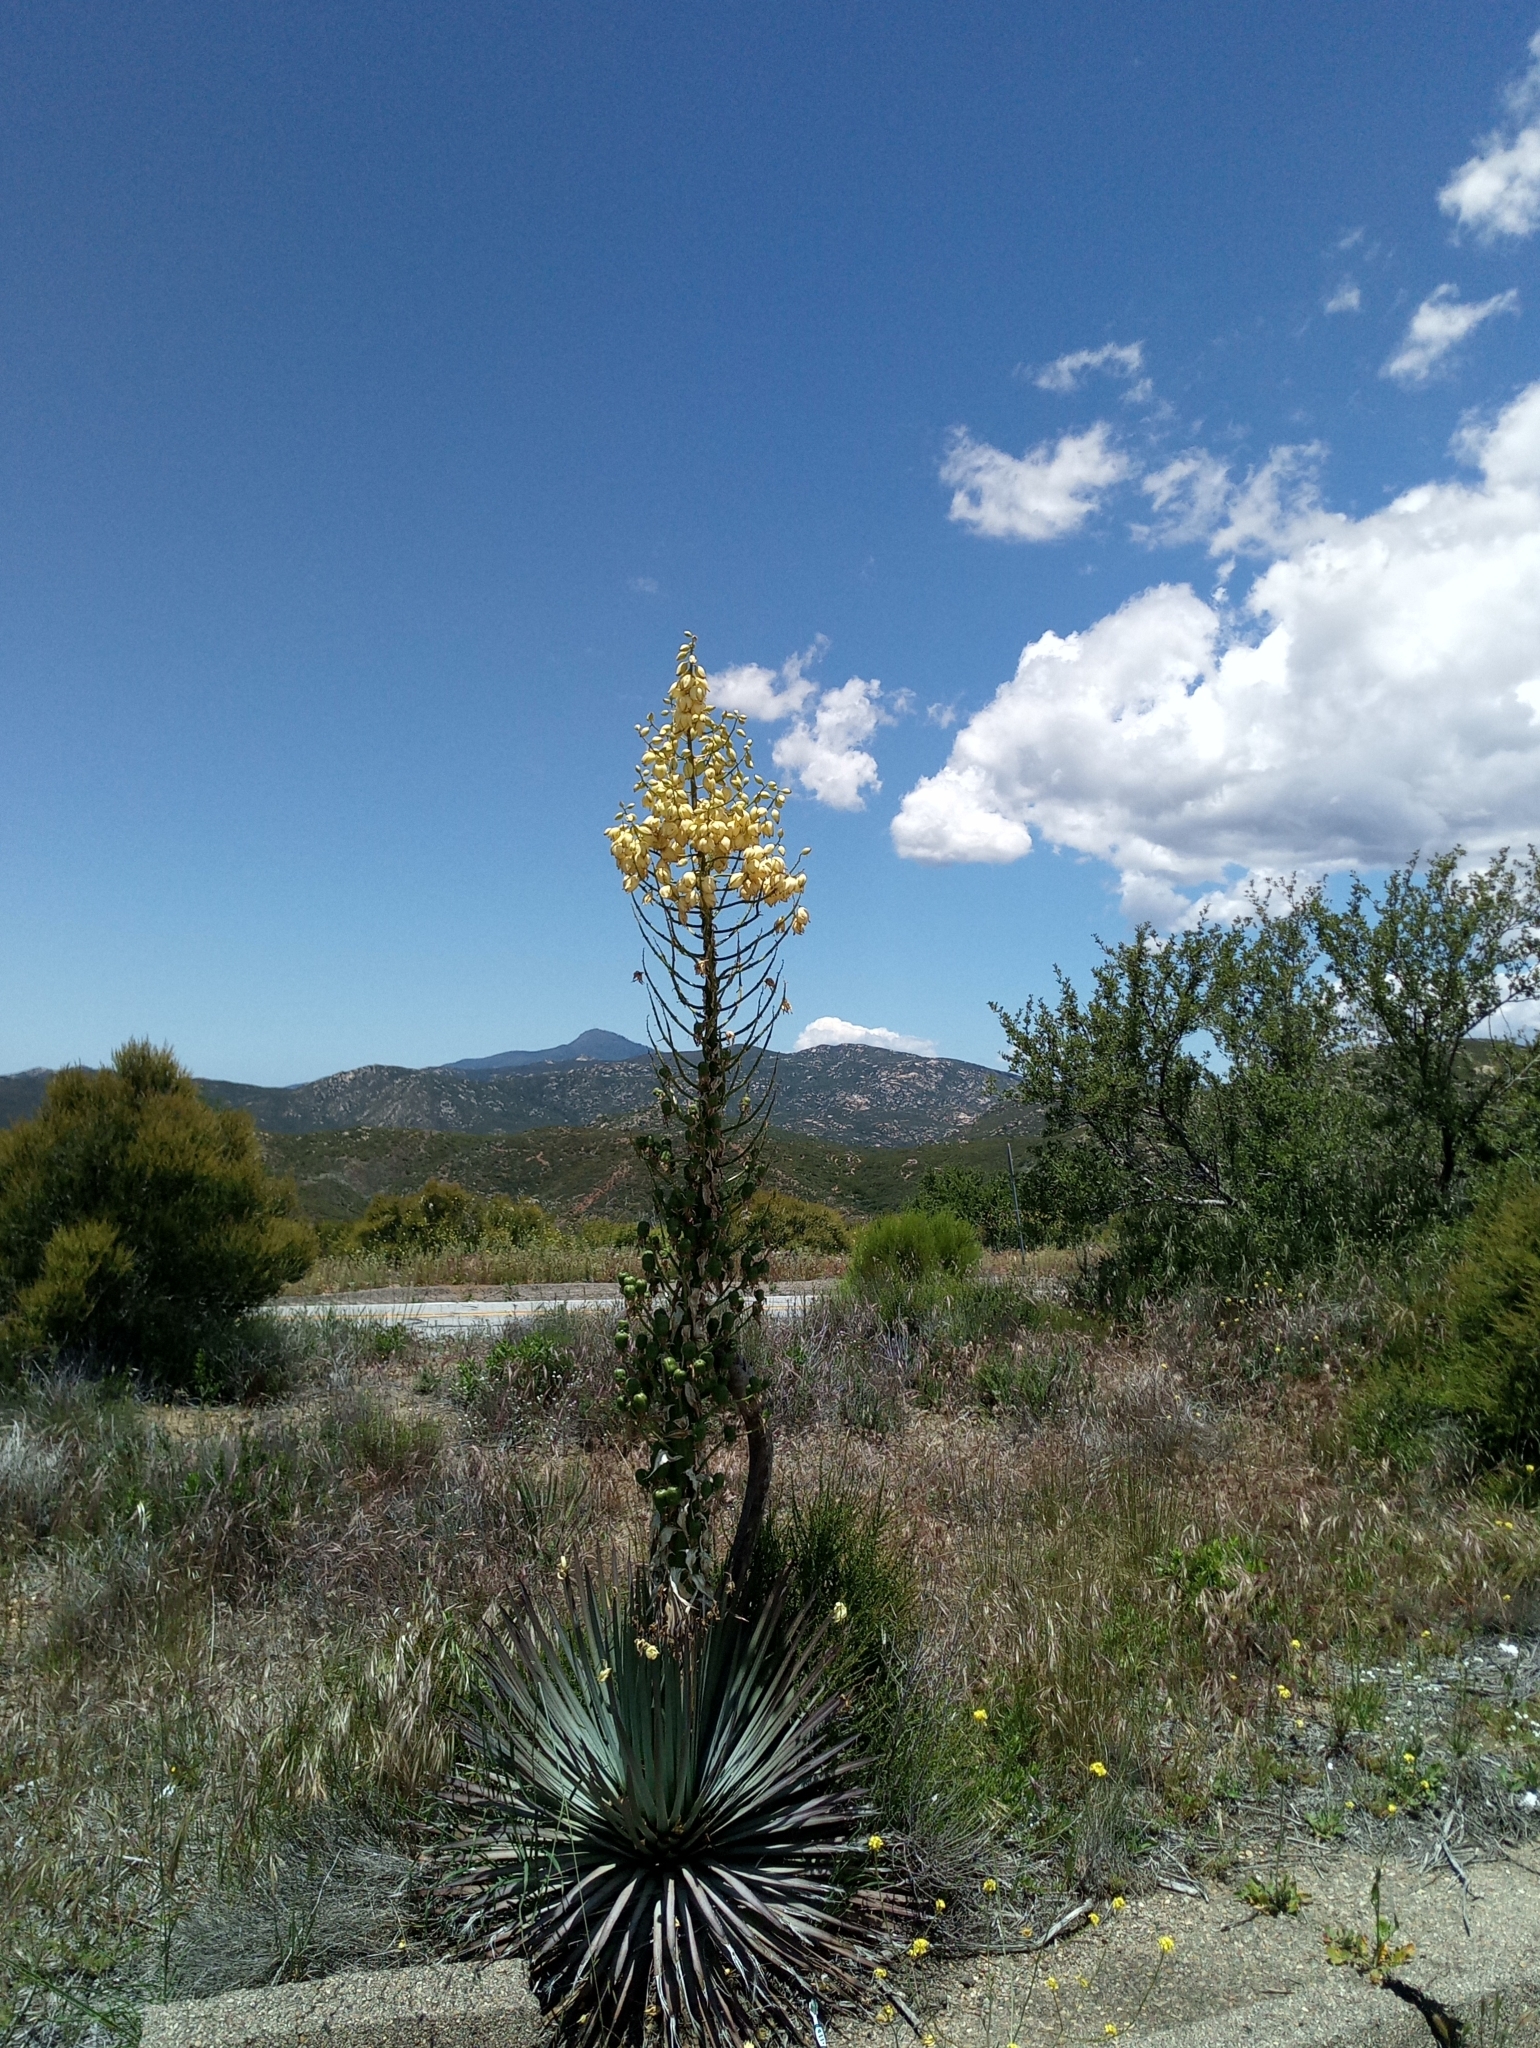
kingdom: Plantae
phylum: Tracheophyta
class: Liliopsida
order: Asparagales
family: Asparagaceae
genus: Hesperoyucca
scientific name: Hesperoyucca whipplei
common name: Our lord's-candle
